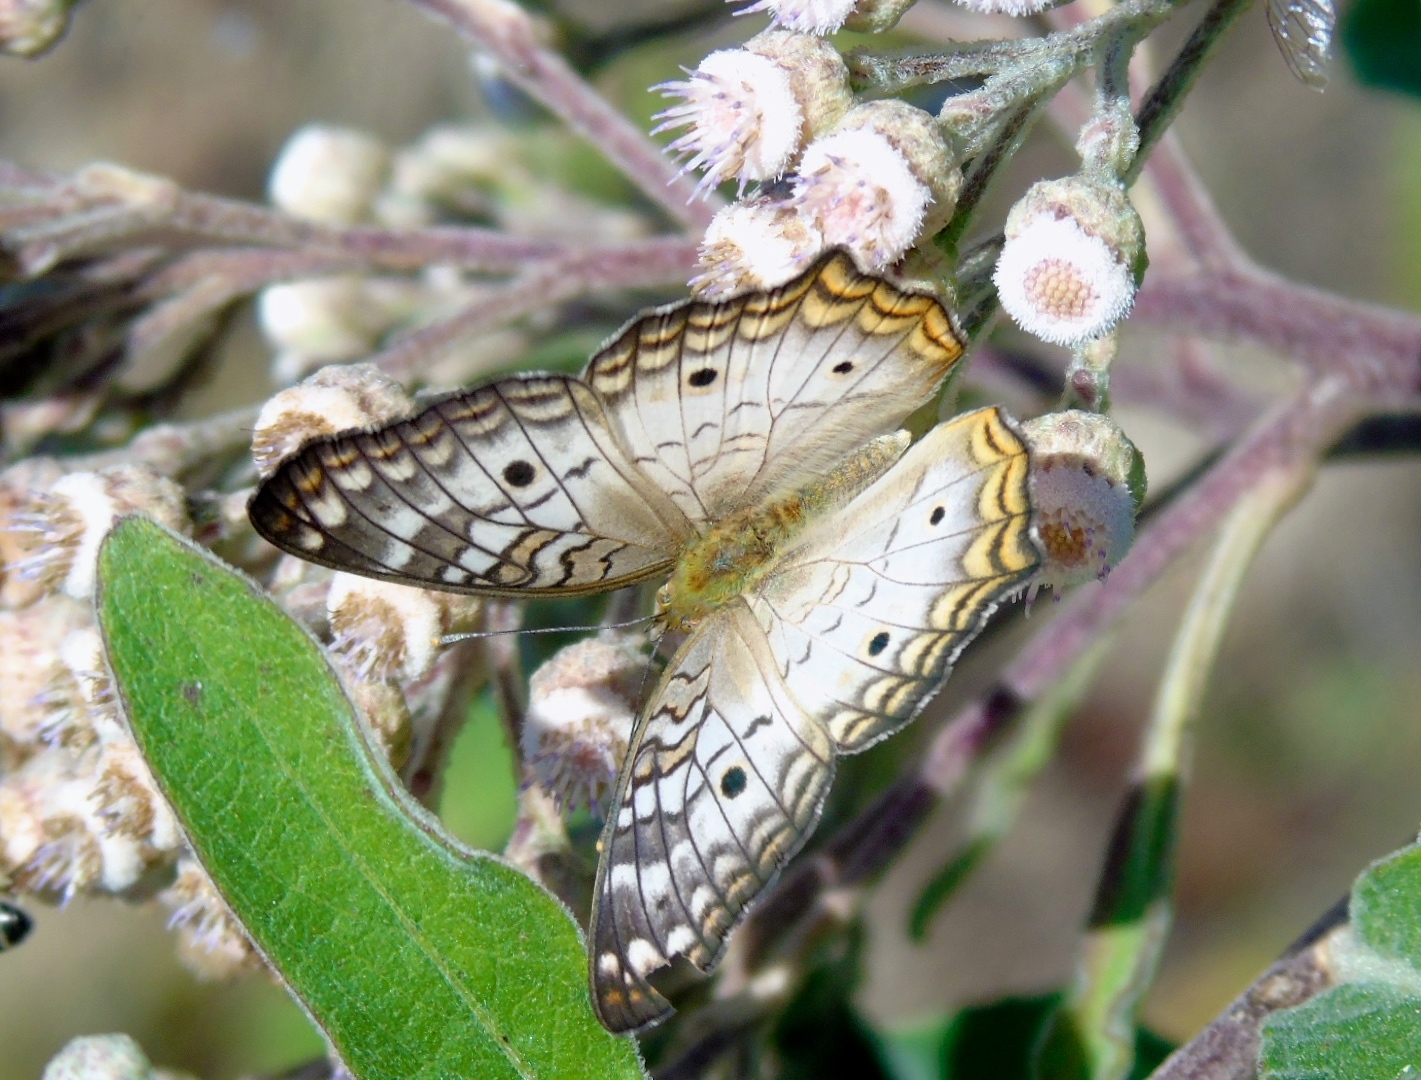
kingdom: Animalia
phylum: Arthropoda
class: Insecta
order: Lepidoptera
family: Nymphalidae
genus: Anartia
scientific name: Anartia jatrophae
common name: White peacock
